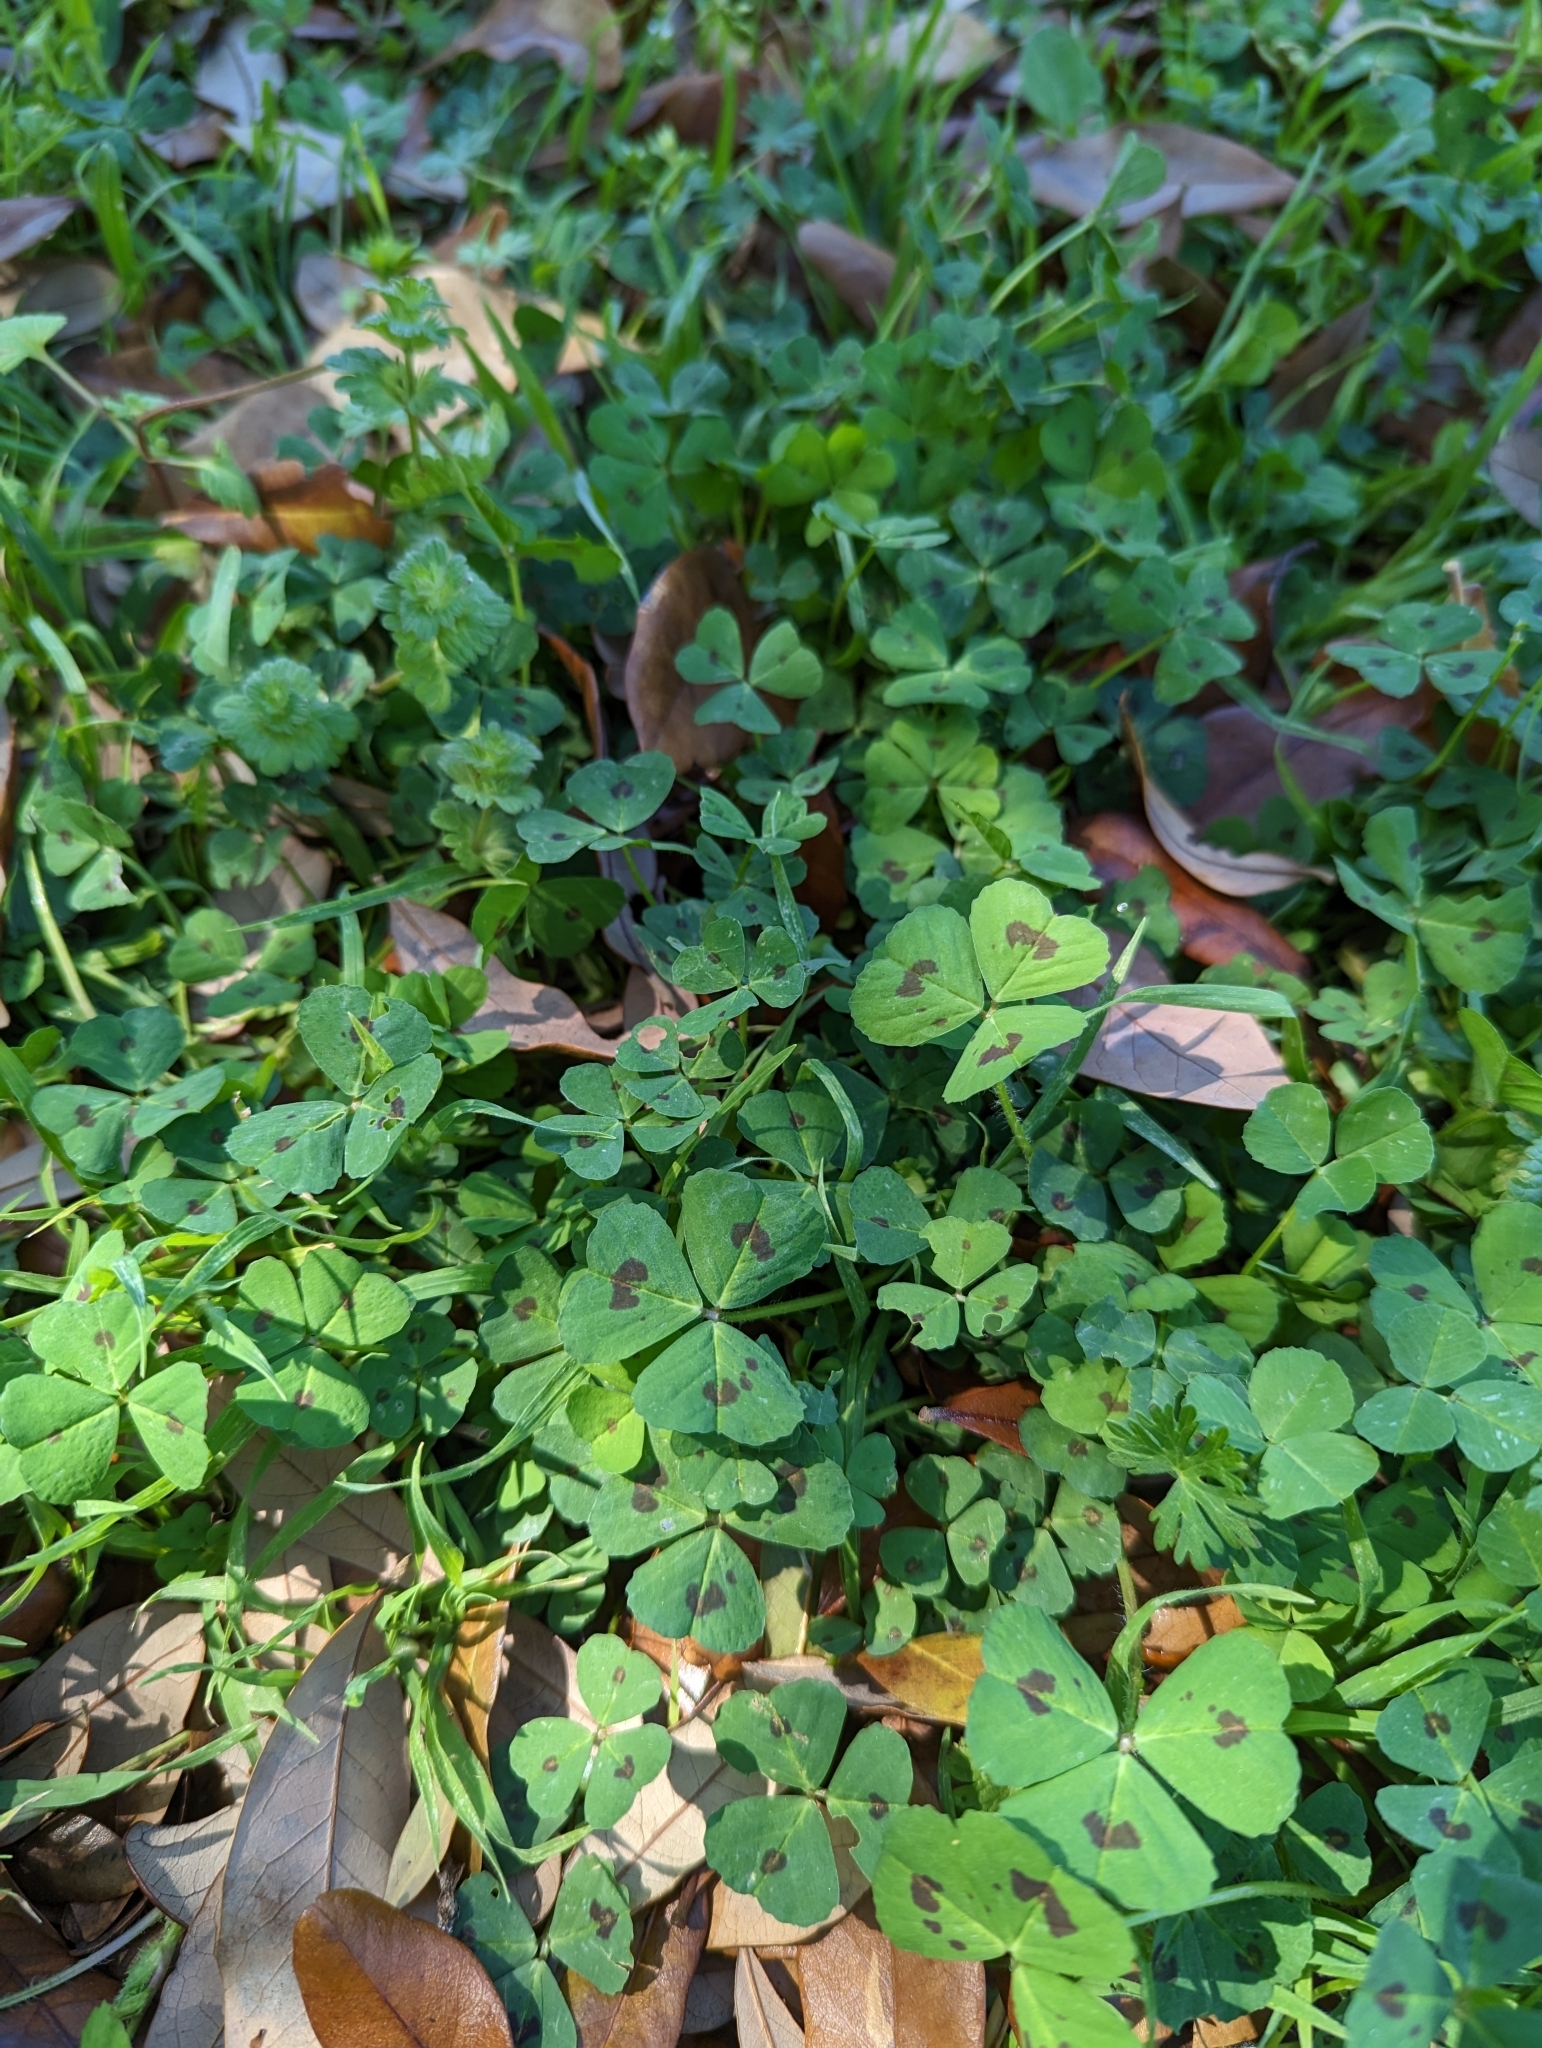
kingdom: Plantae
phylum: Tracheophyta
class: Magnoliopsida
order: Fabales
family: Fabaceae
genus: Medicago
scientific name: Medicago arabica
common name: Spotted medick
